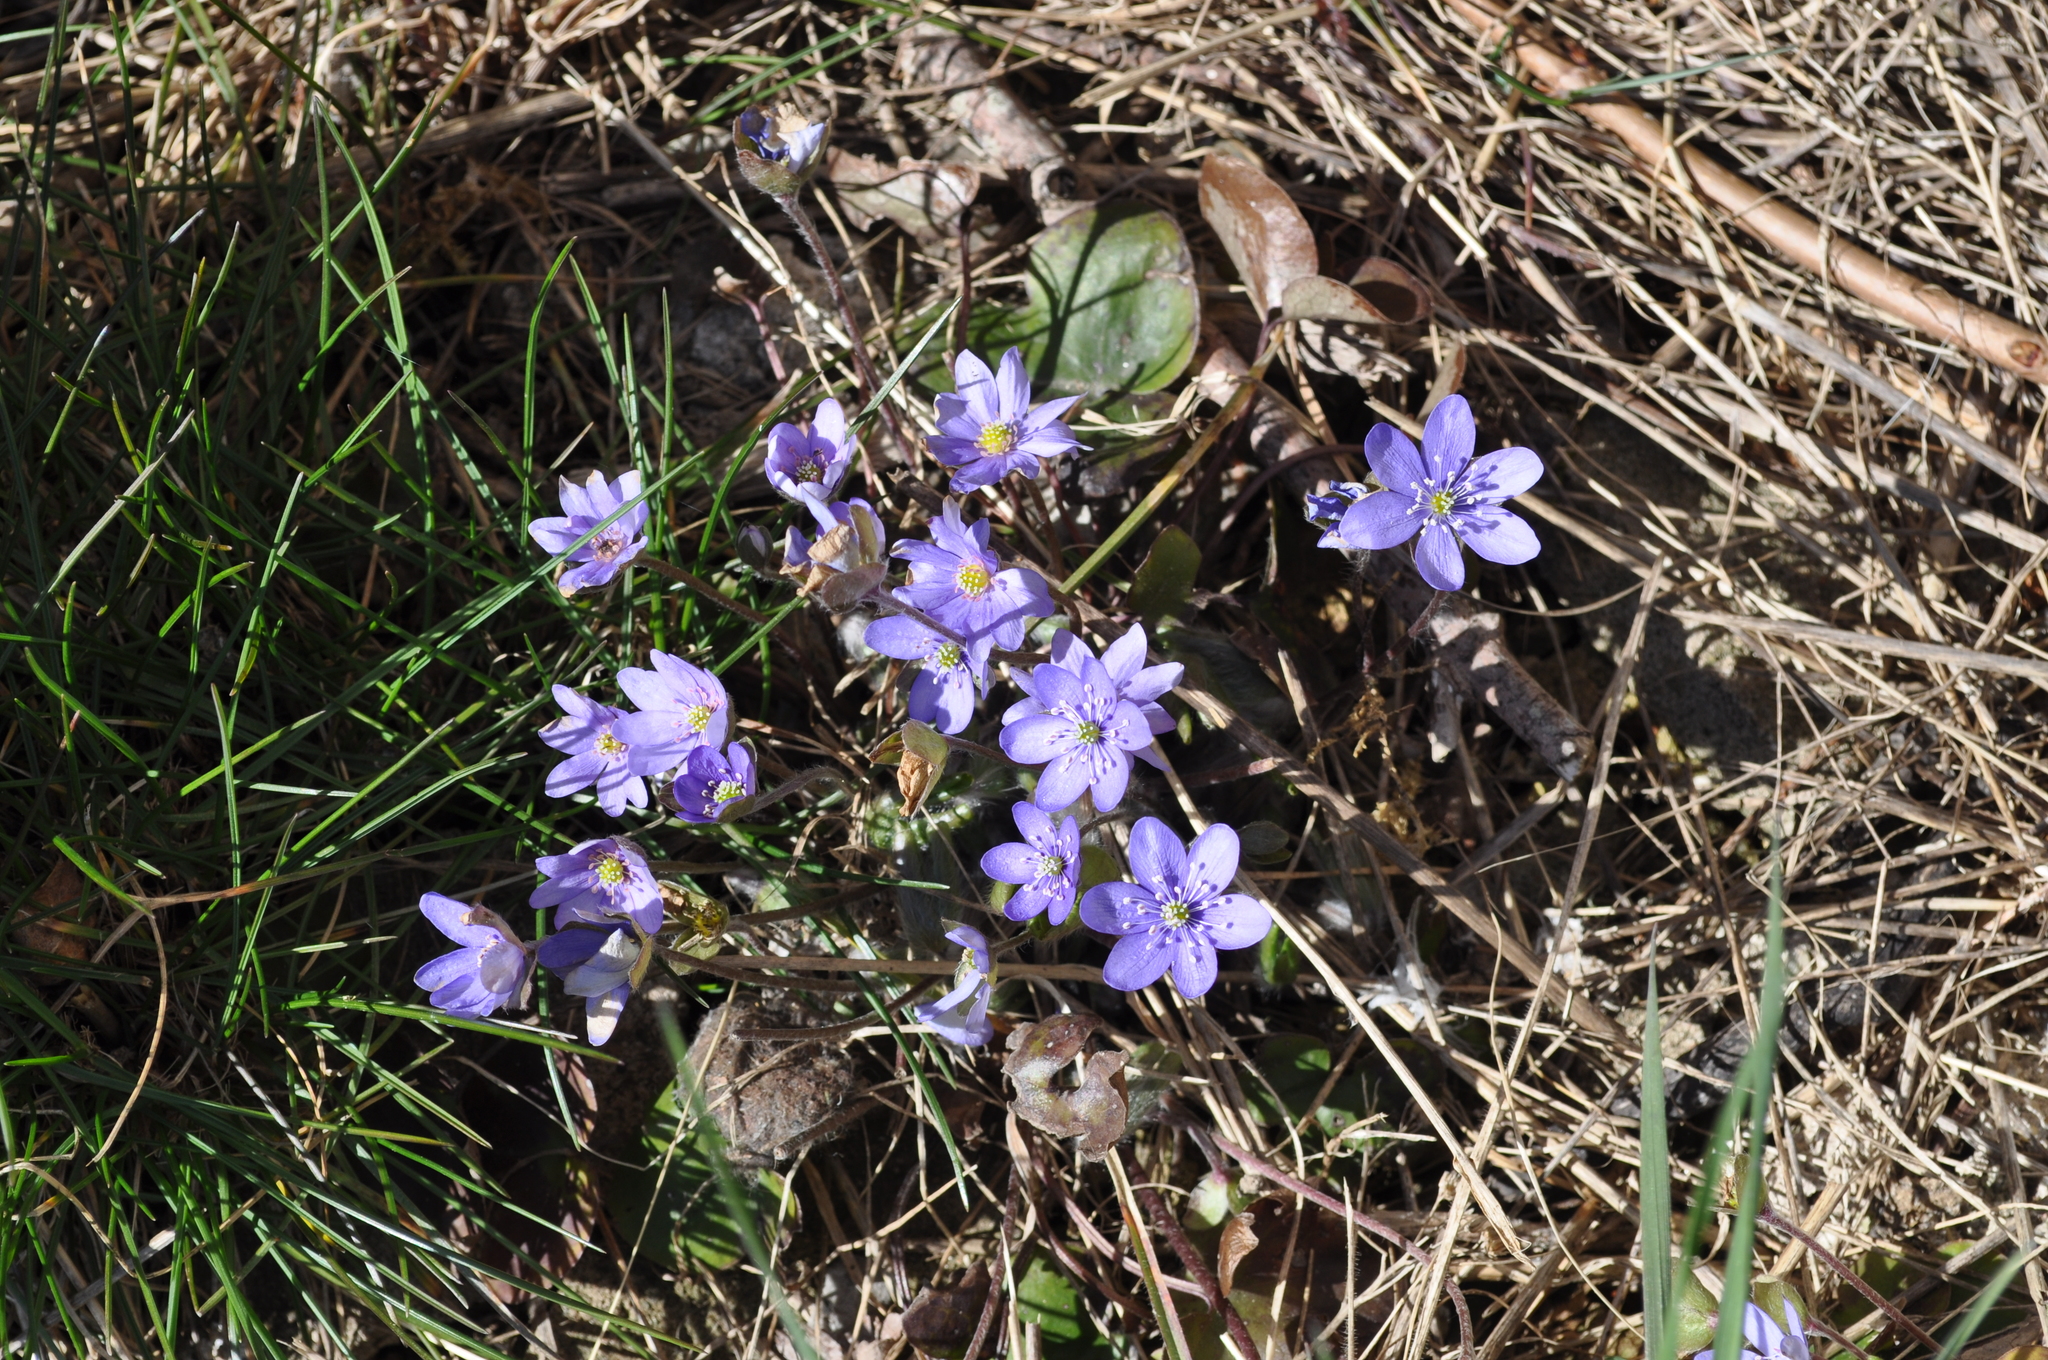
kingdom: Plantae
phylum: Tracheophyta
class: Magnoliopsida
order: Ranunculales
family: Ranunculaceae
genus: Hepatica
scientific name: Hepatica nobilis
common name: Liverleaf
